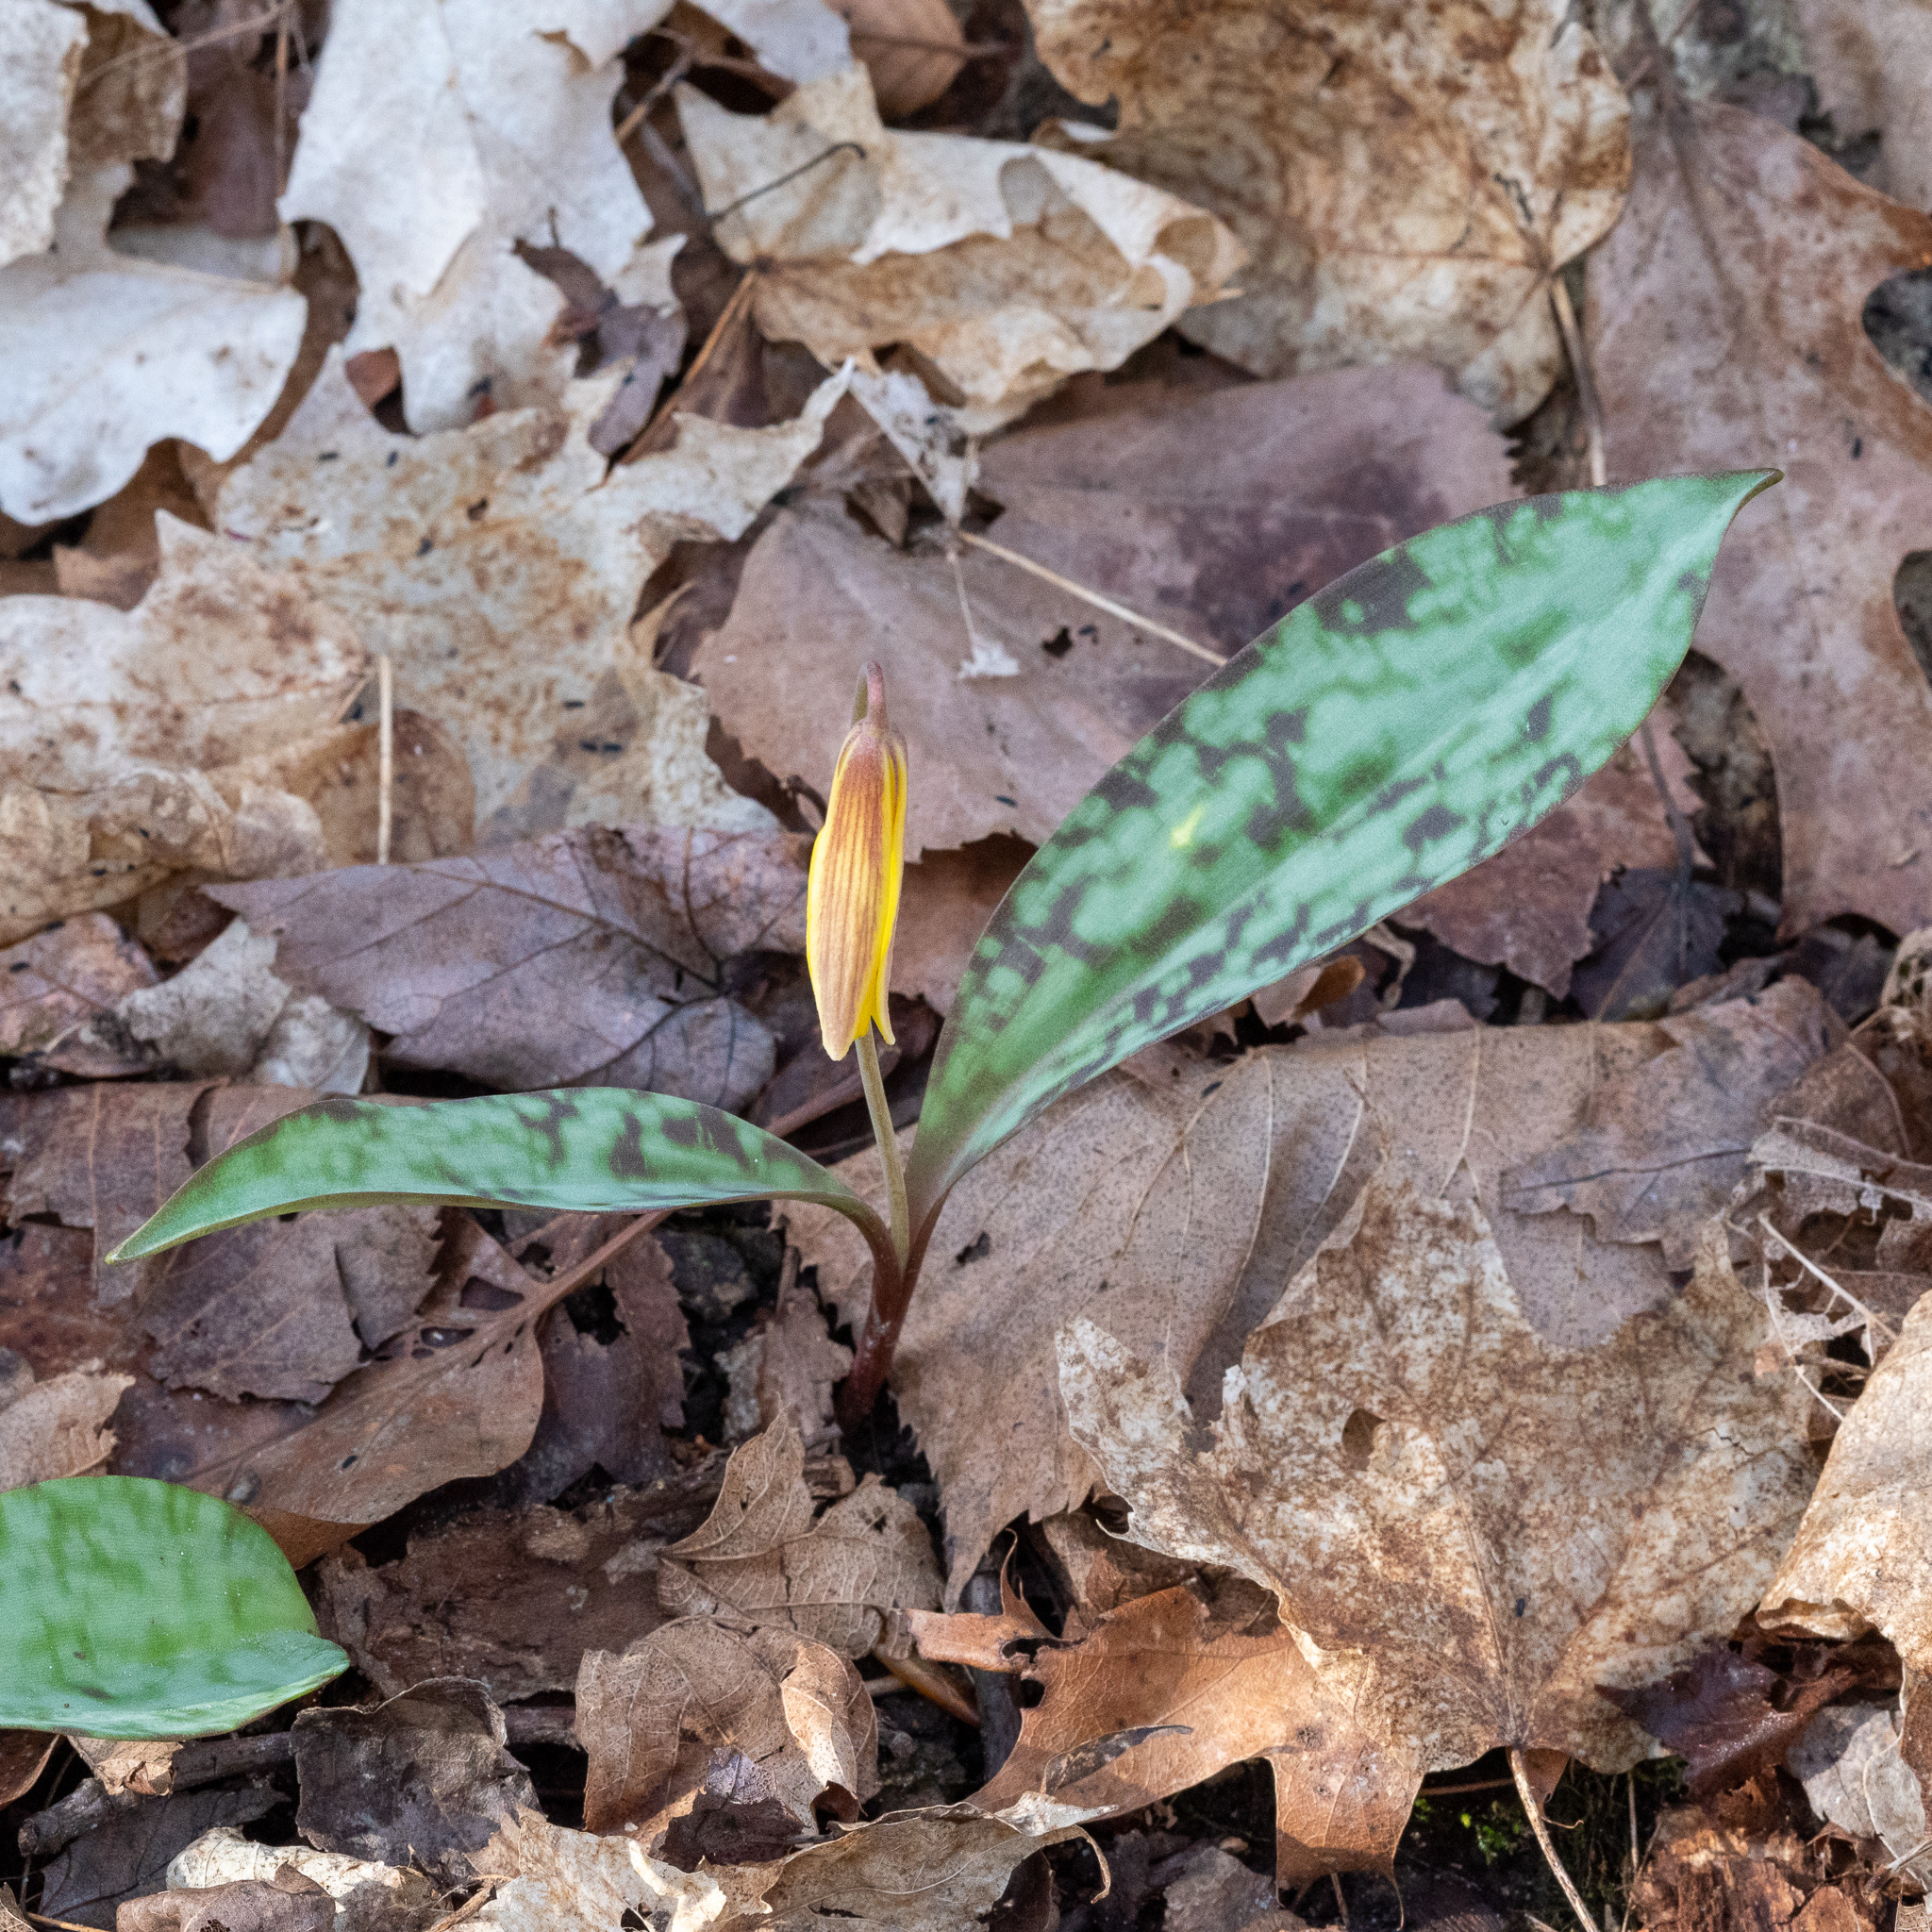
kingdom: Plantae
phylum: Tracheophyta
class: Liliopsida
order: Liliales
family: Liliaceae
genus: Erythronium
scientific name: Erythronium americanum
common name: Yellow adder's-tongue
